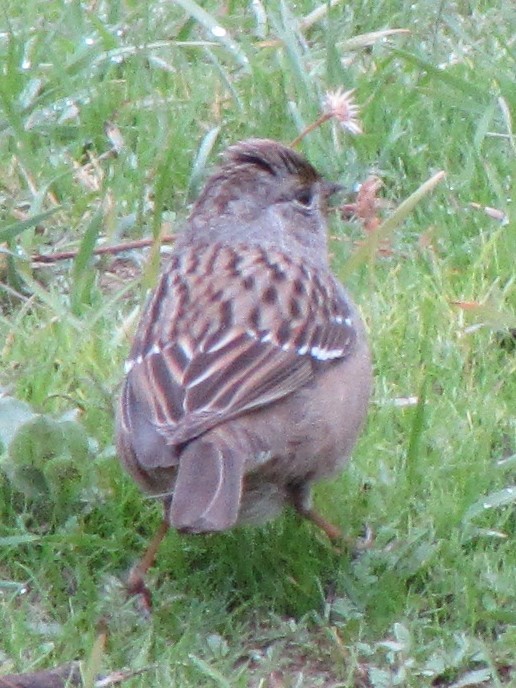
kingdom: Animalia
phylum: Chordata
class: Aves
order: Passeriformes
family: Passerellidae
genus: Zonotrichia
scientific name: Zonotrichia atricapilla
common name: Golden-crowned sparrow
